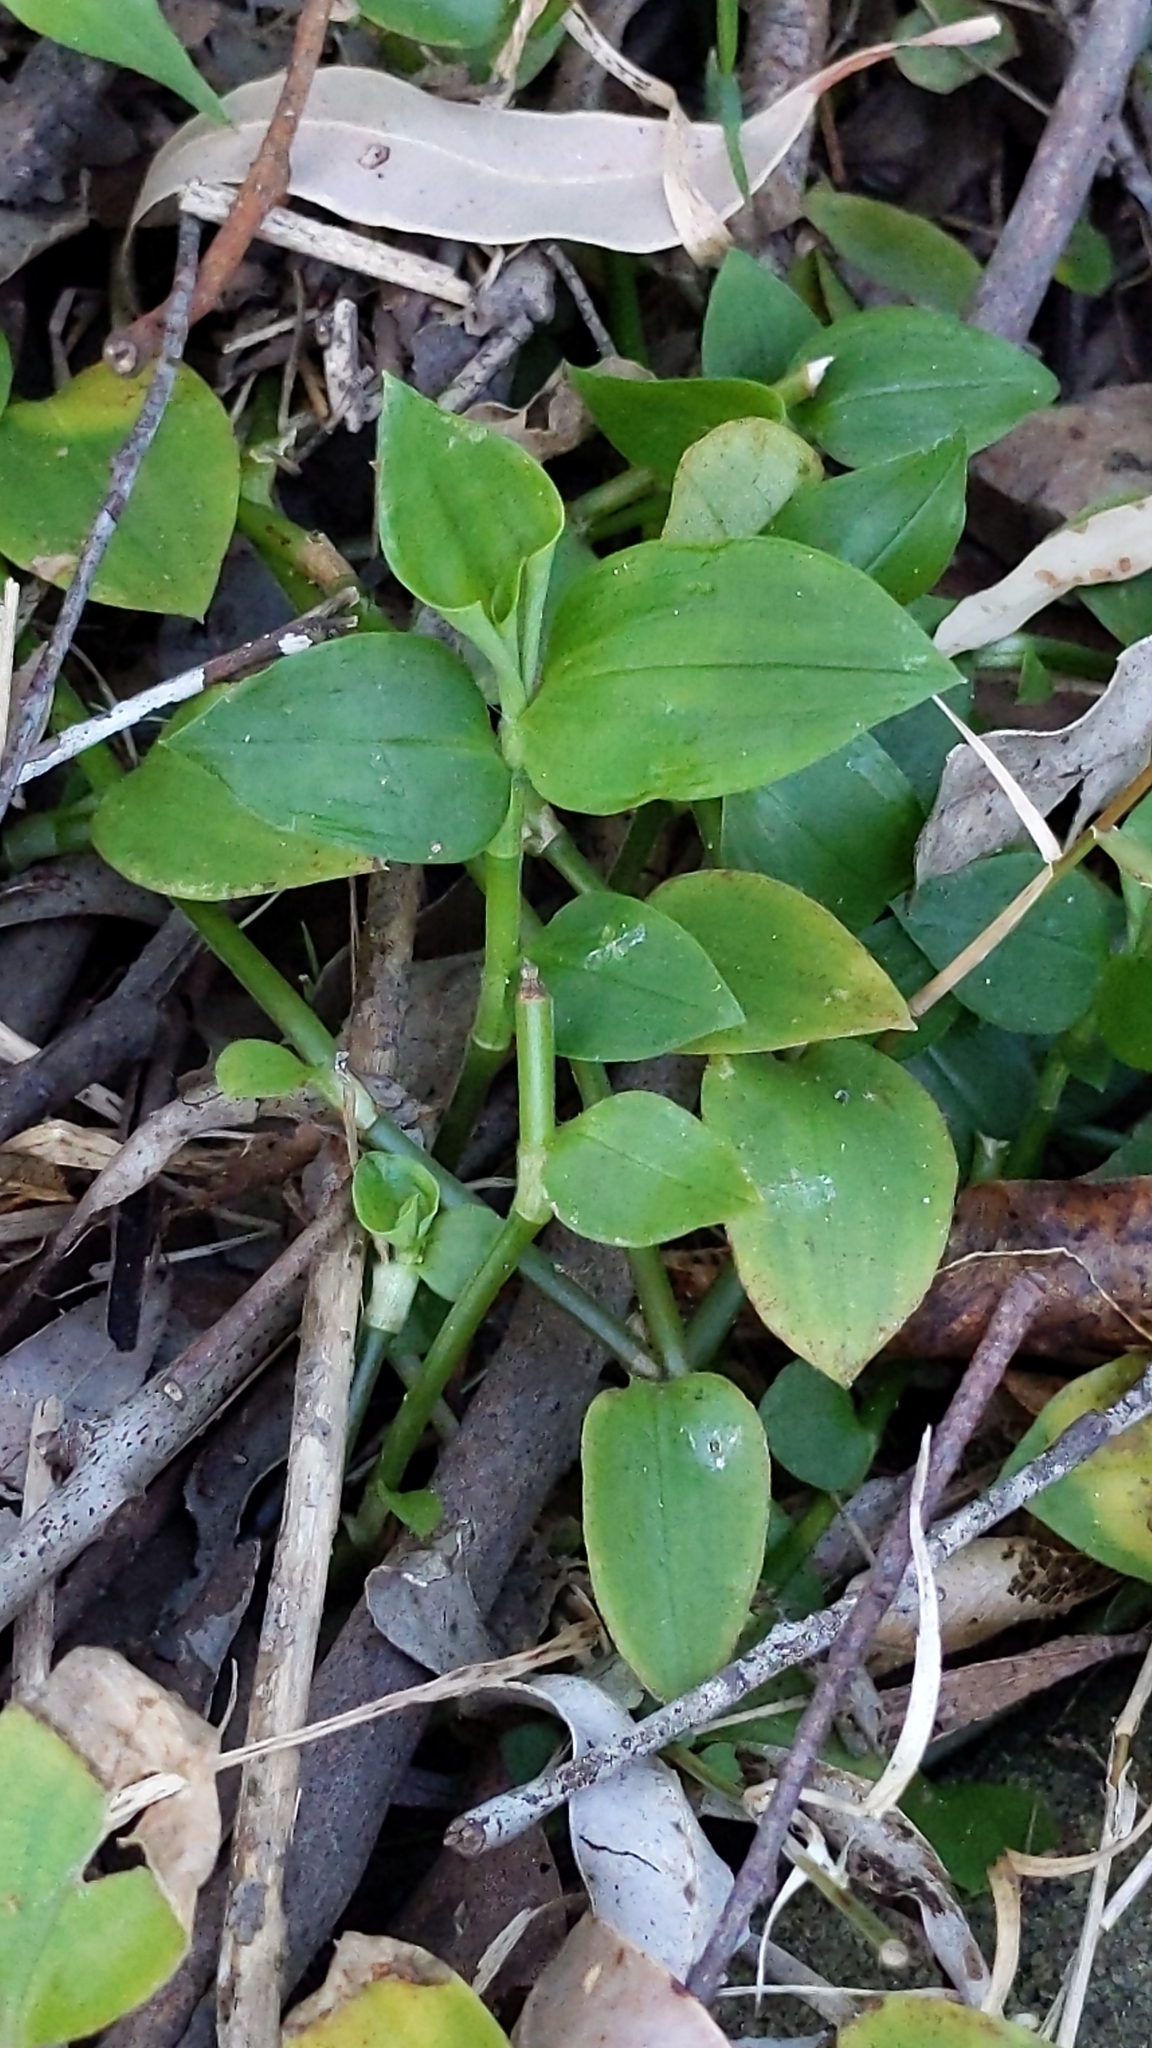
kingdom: Plantae
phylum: Tracheophyta
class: Liliopsida
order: Commelinales
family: Commelinaceae
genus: Tradescantia
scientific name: Tradescantia fluminensis
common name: Wandering-jew
